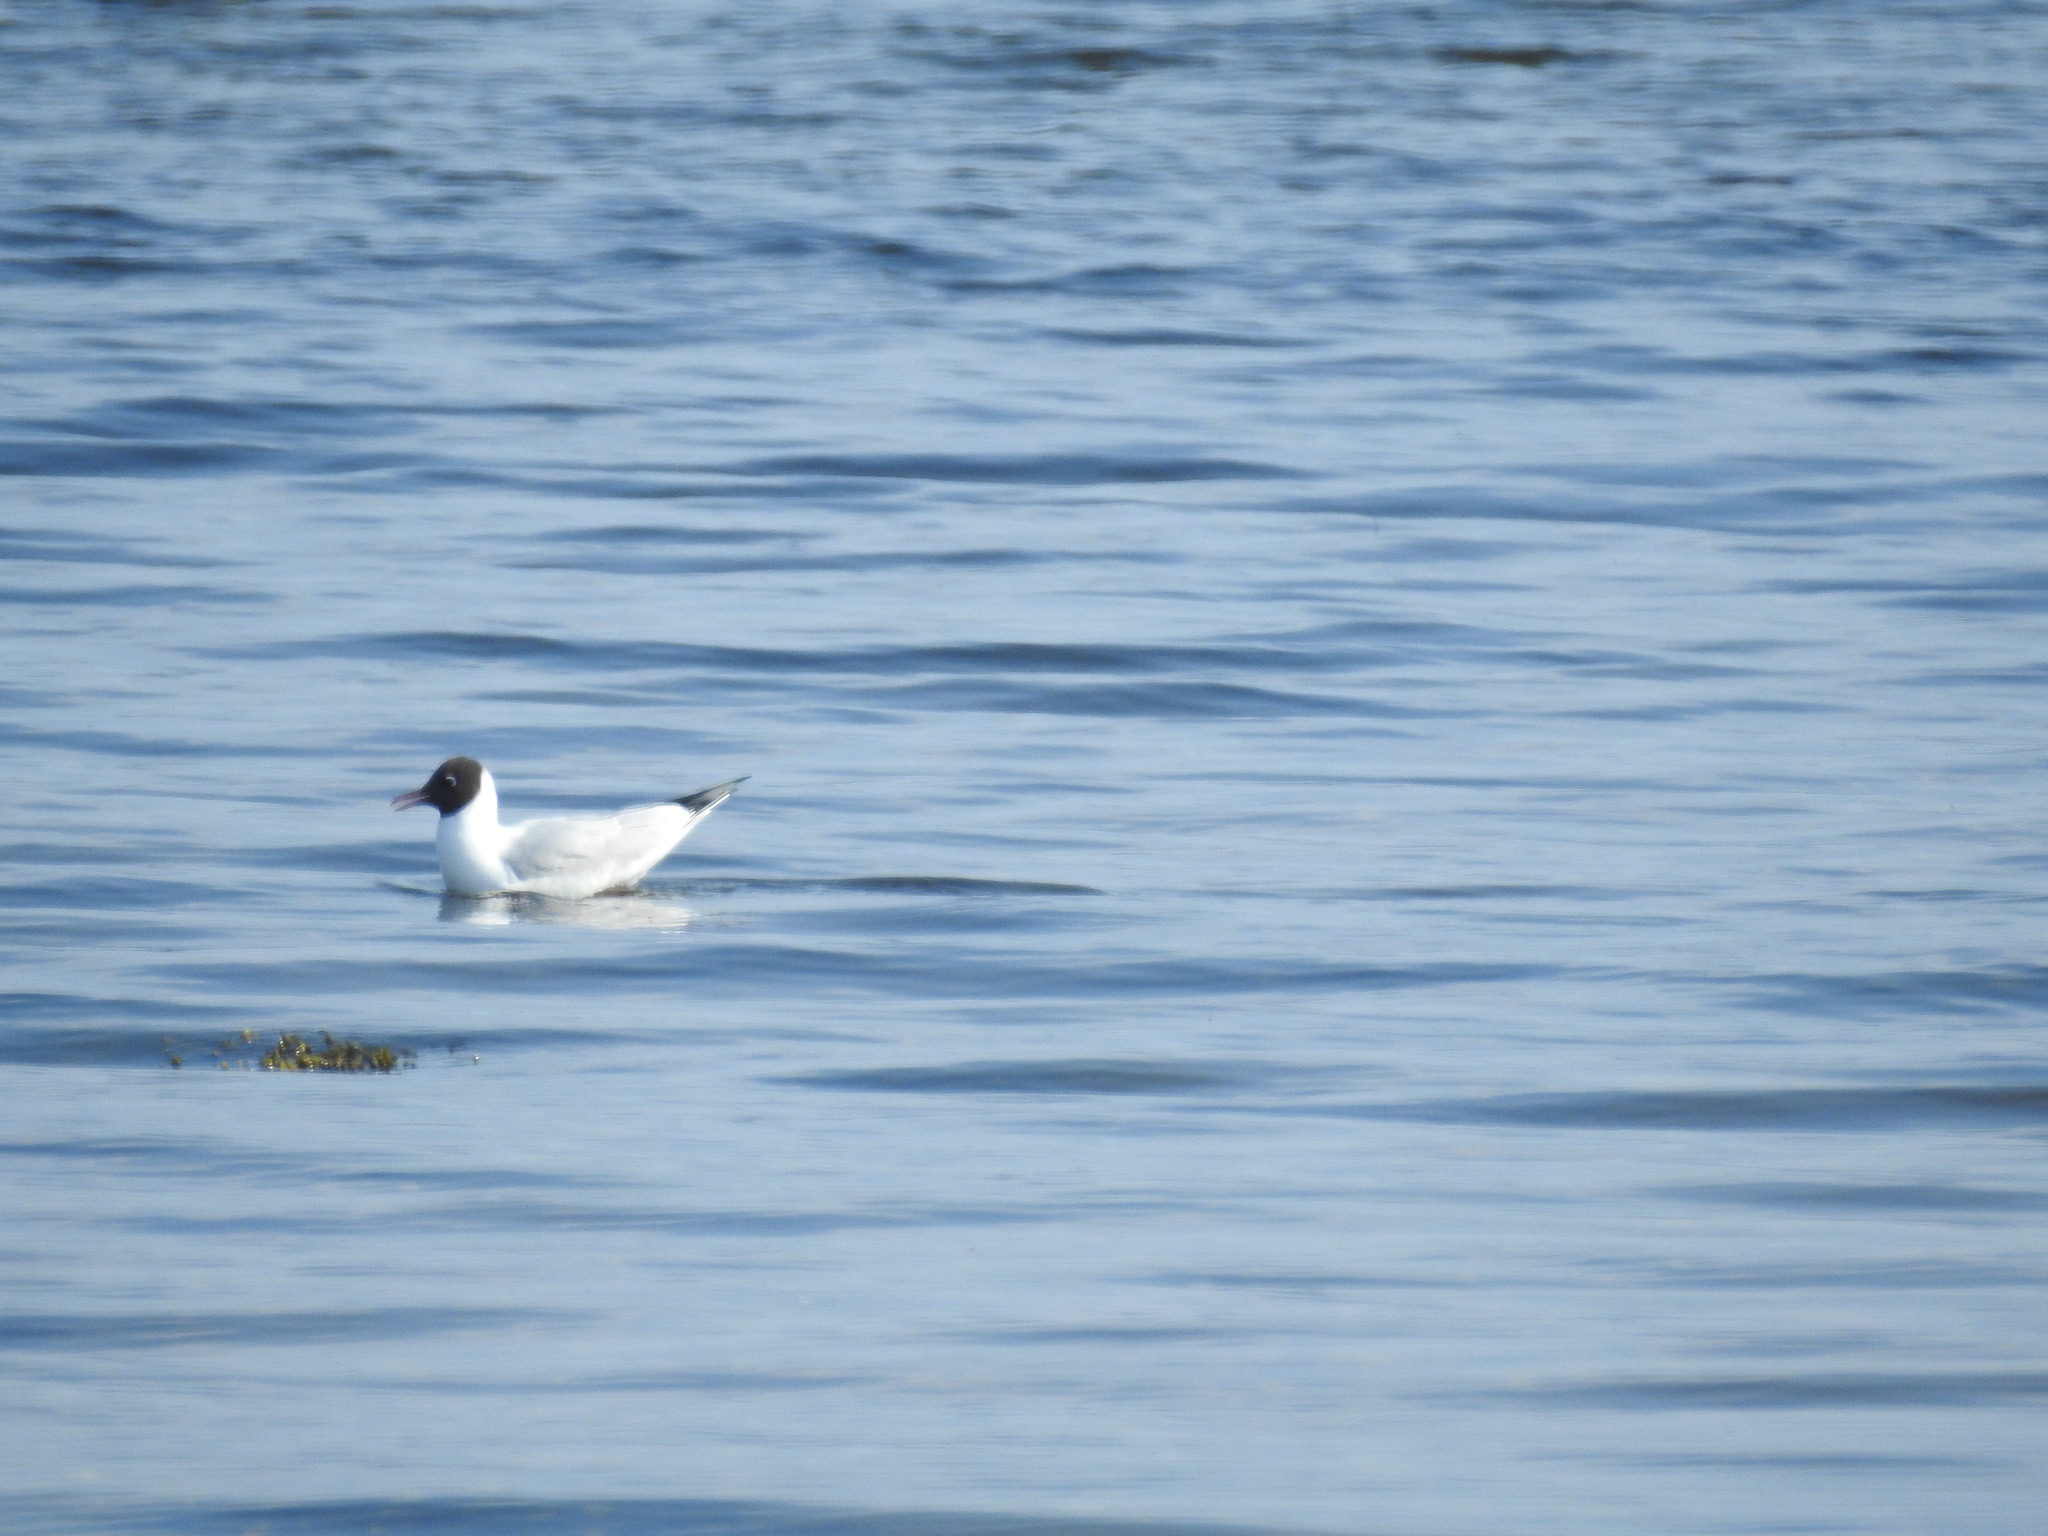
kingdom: Animalia
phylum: Chordata
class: Aves
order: Charadriiformes
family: Laridae
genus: Chroicocephalus
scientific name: Chroicocephalus ridibundus
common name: Black-headed gull
